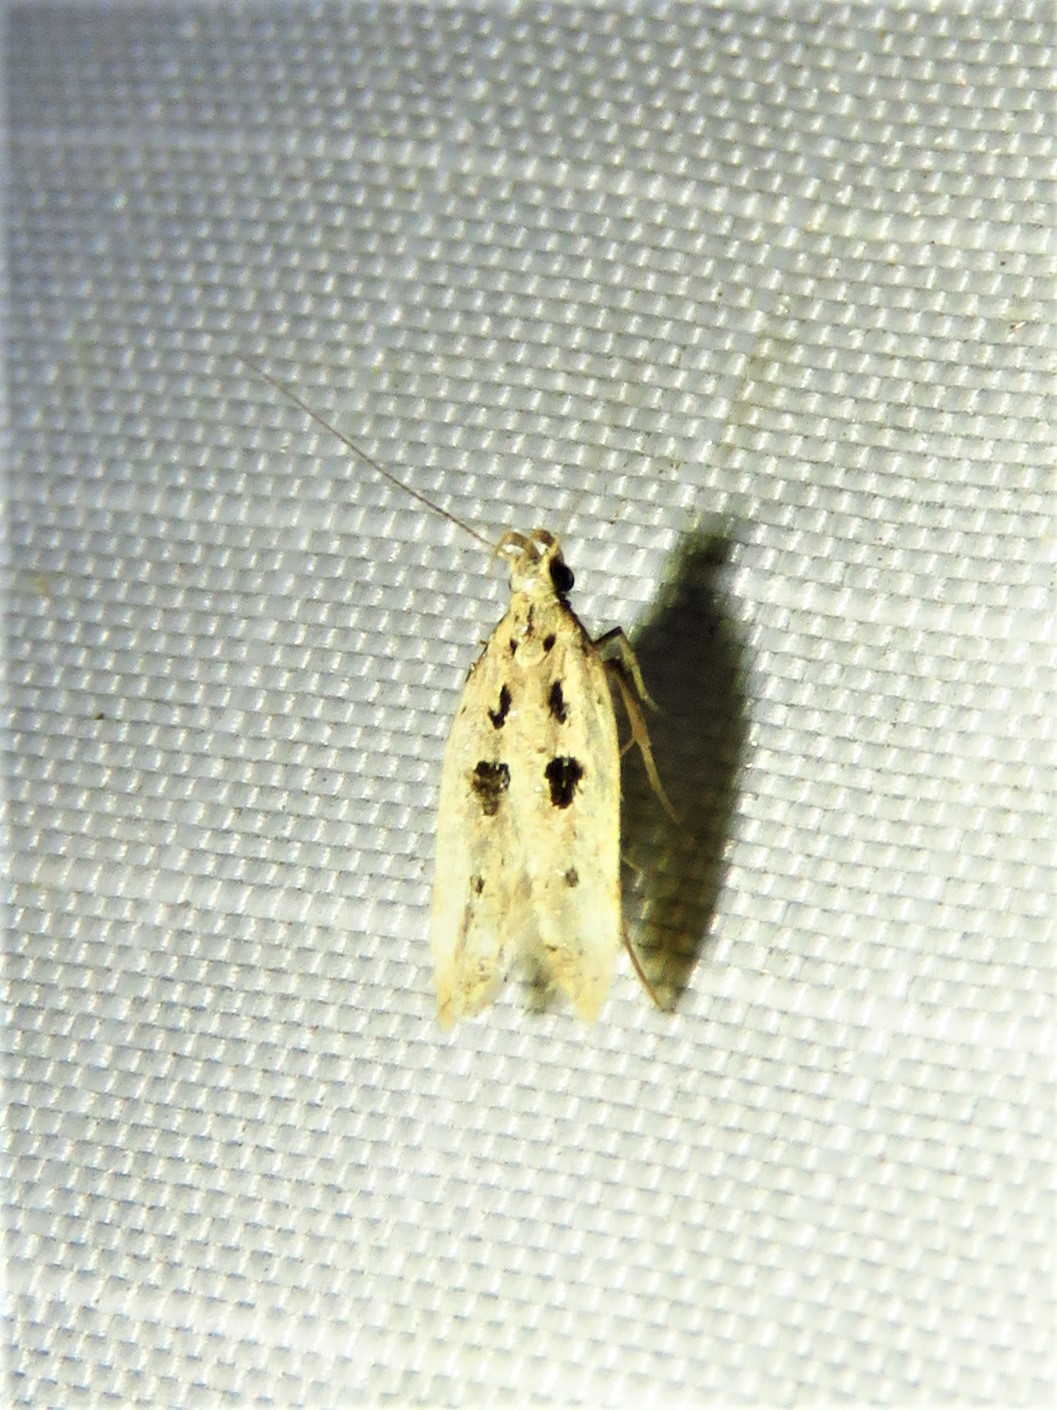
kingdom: Animalia
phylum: Arthropoda
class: Insecta
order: Lepidoptera
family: Gelechiidae
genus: Deltophora
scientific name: Deltophora sella
